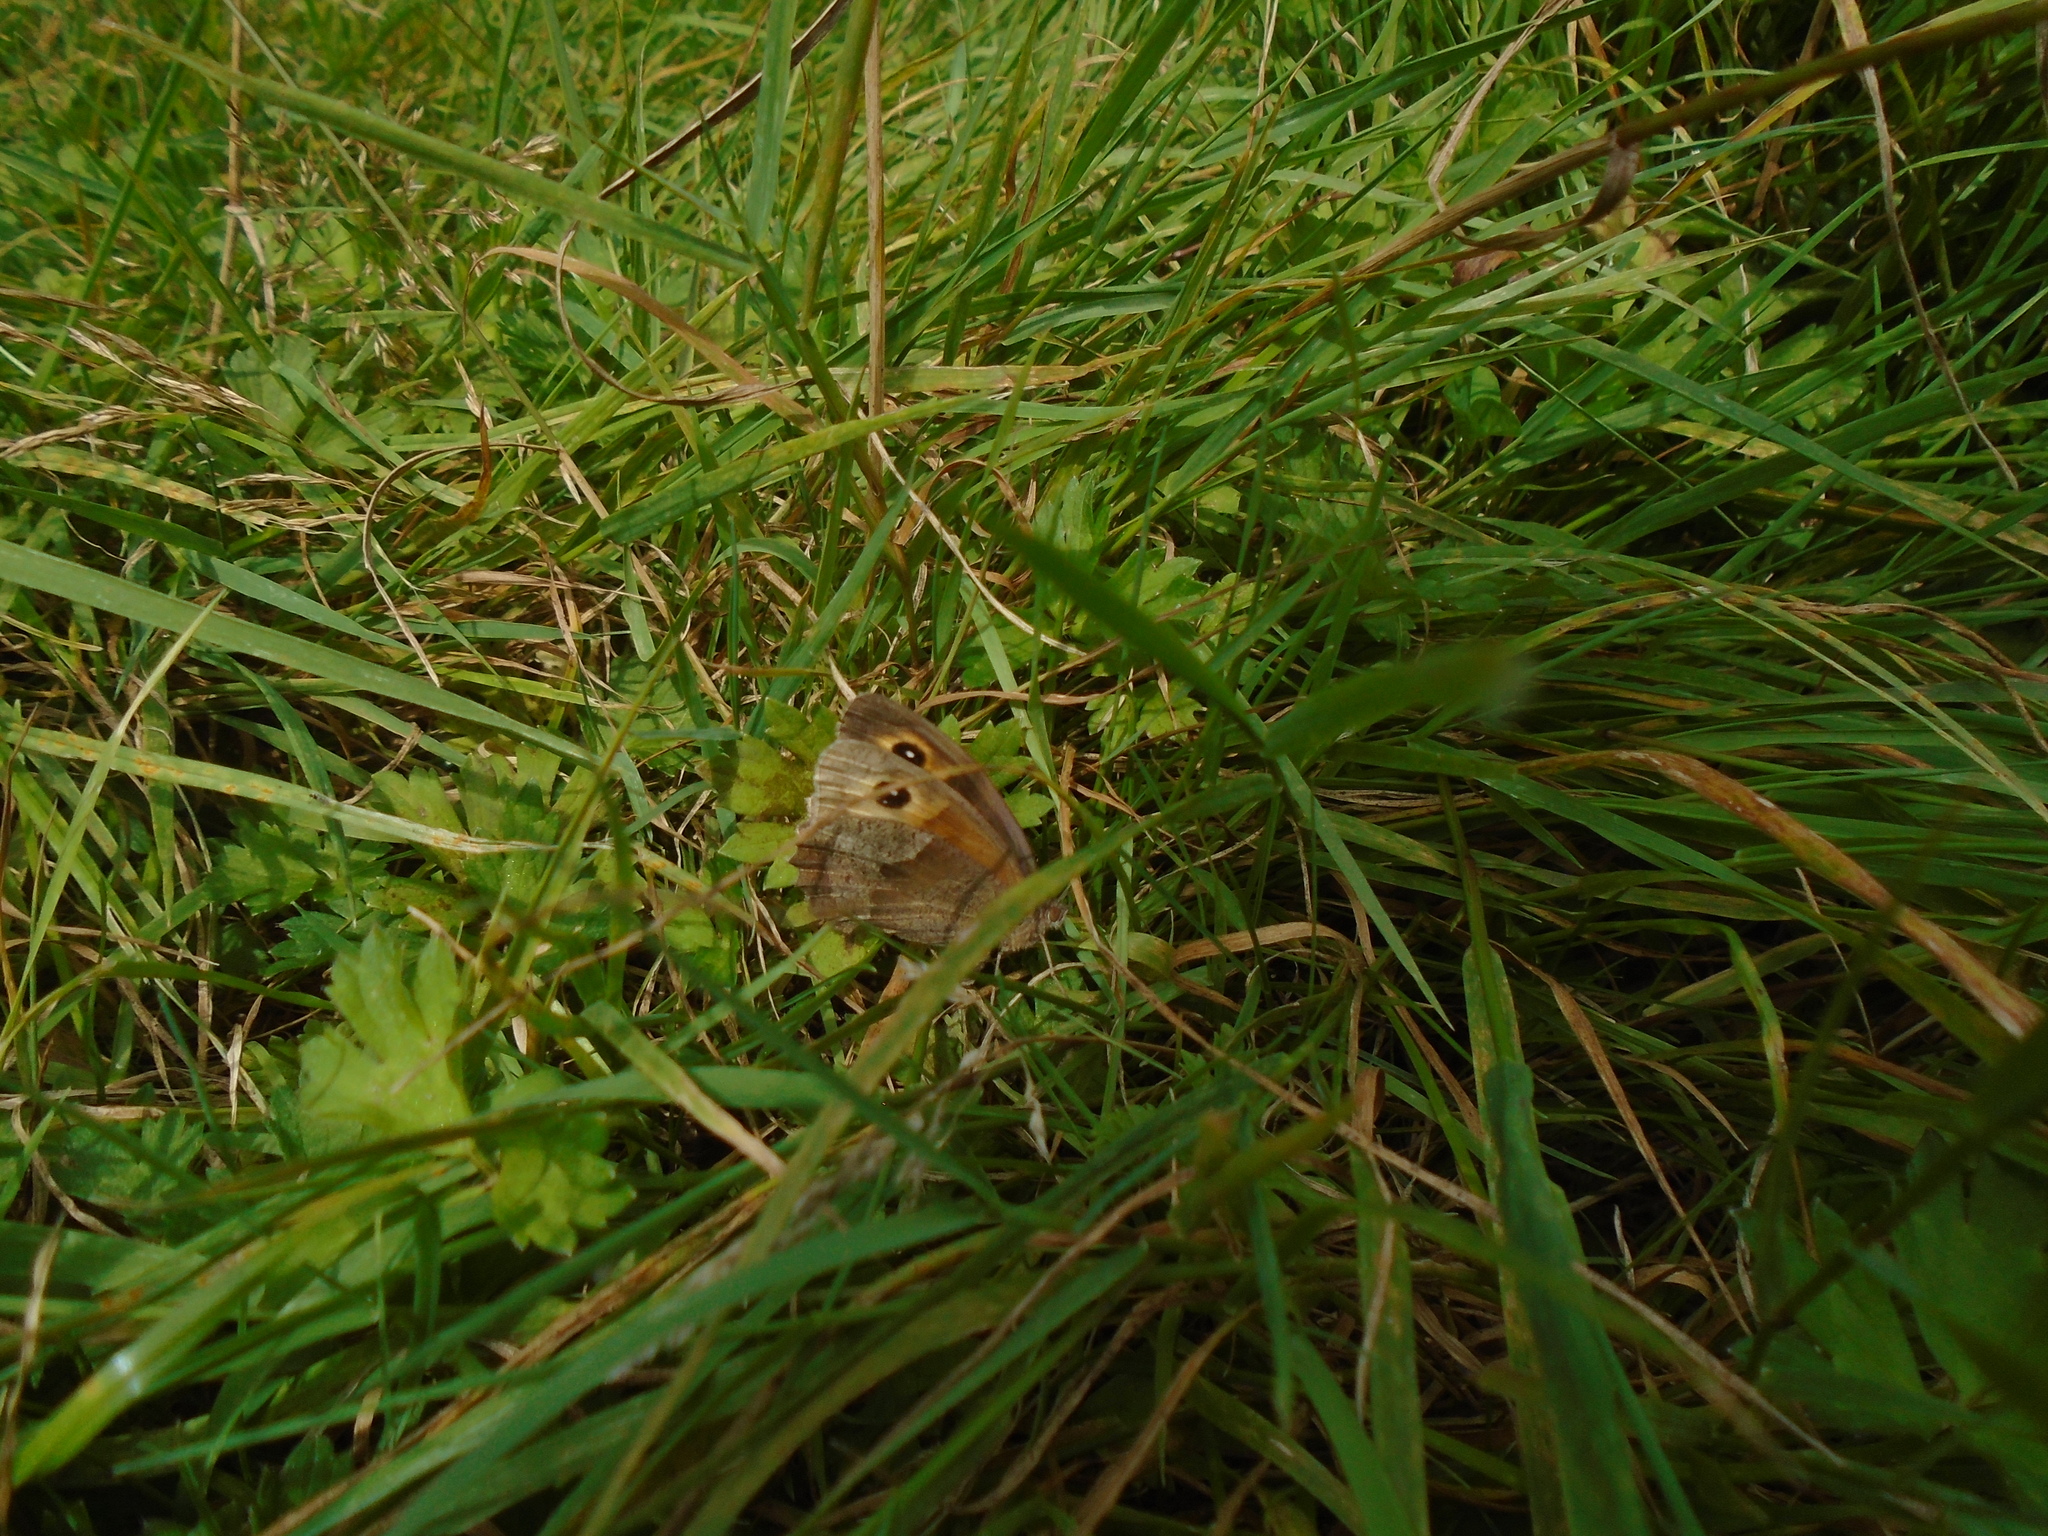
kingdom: Animalia
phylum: Arthropoda
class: Insecta
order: Lepidoptera
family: Nymphalidae
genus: Maniola
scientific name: Maniola jurtina
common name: Meadow brown
